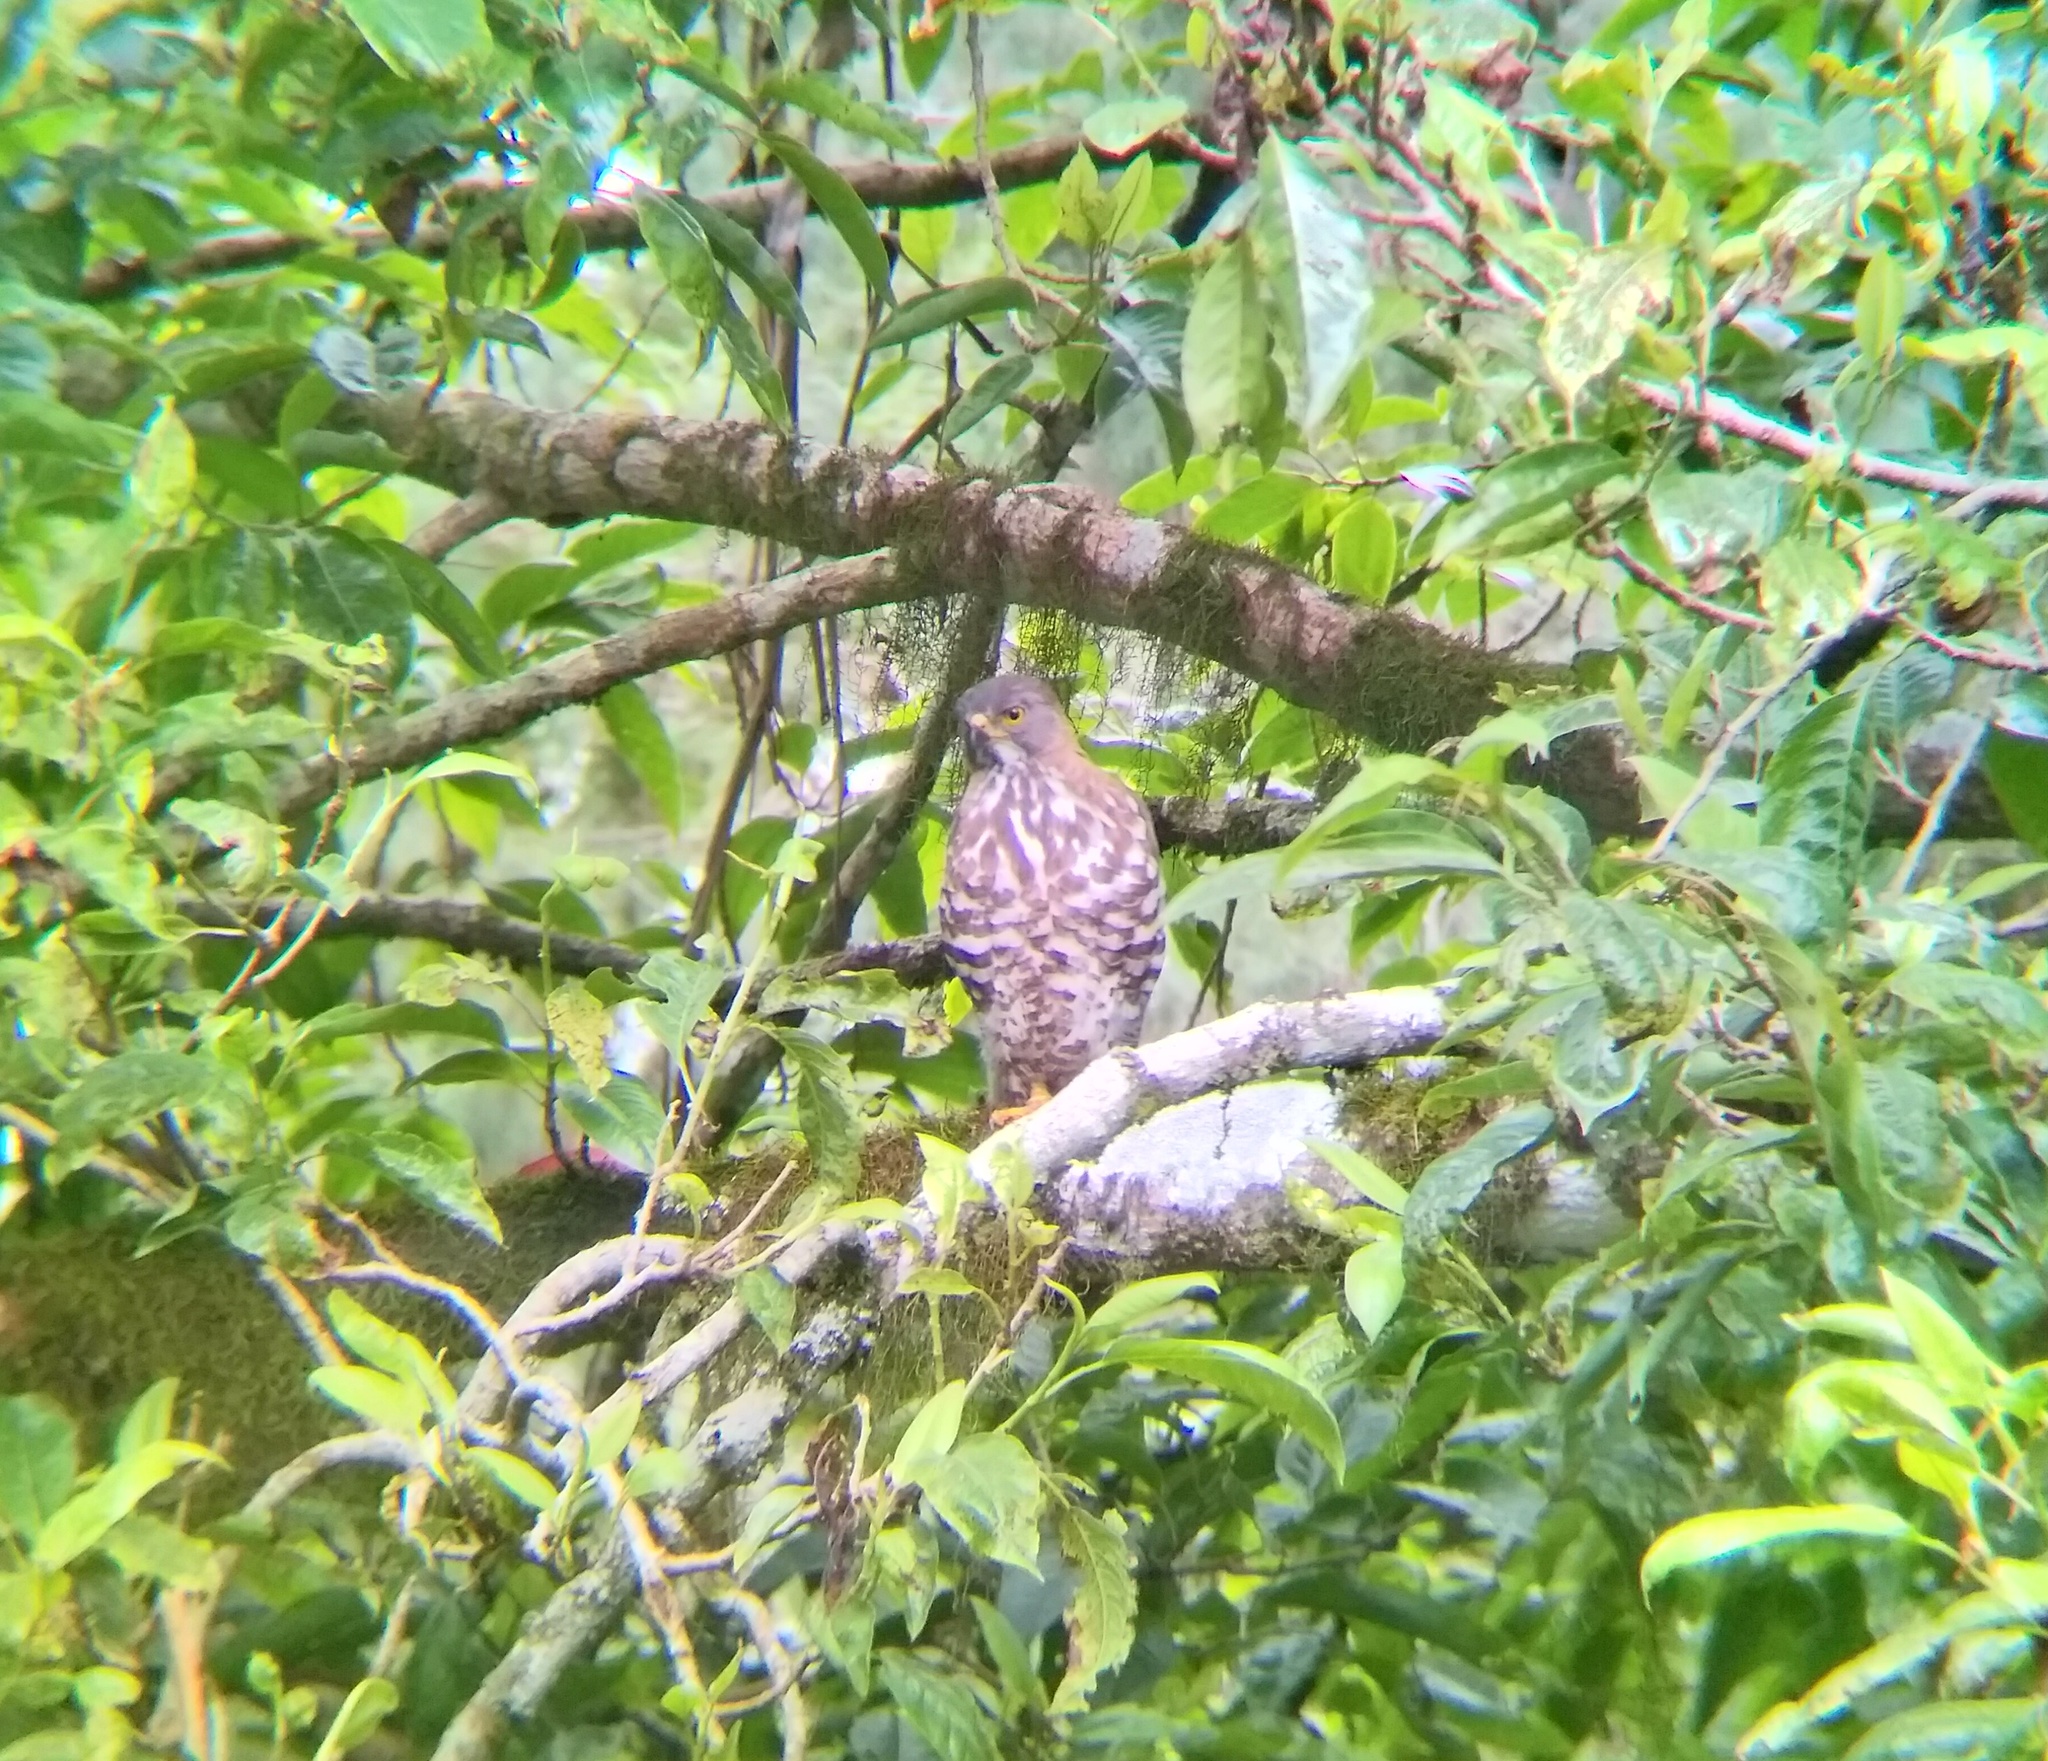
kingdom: Animalia
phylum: Chordata
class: Aves
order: Accipitriformes
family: Accipitridae
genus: Accipiter
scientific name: Accipiter trivirgatus
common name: Crested goshawk
